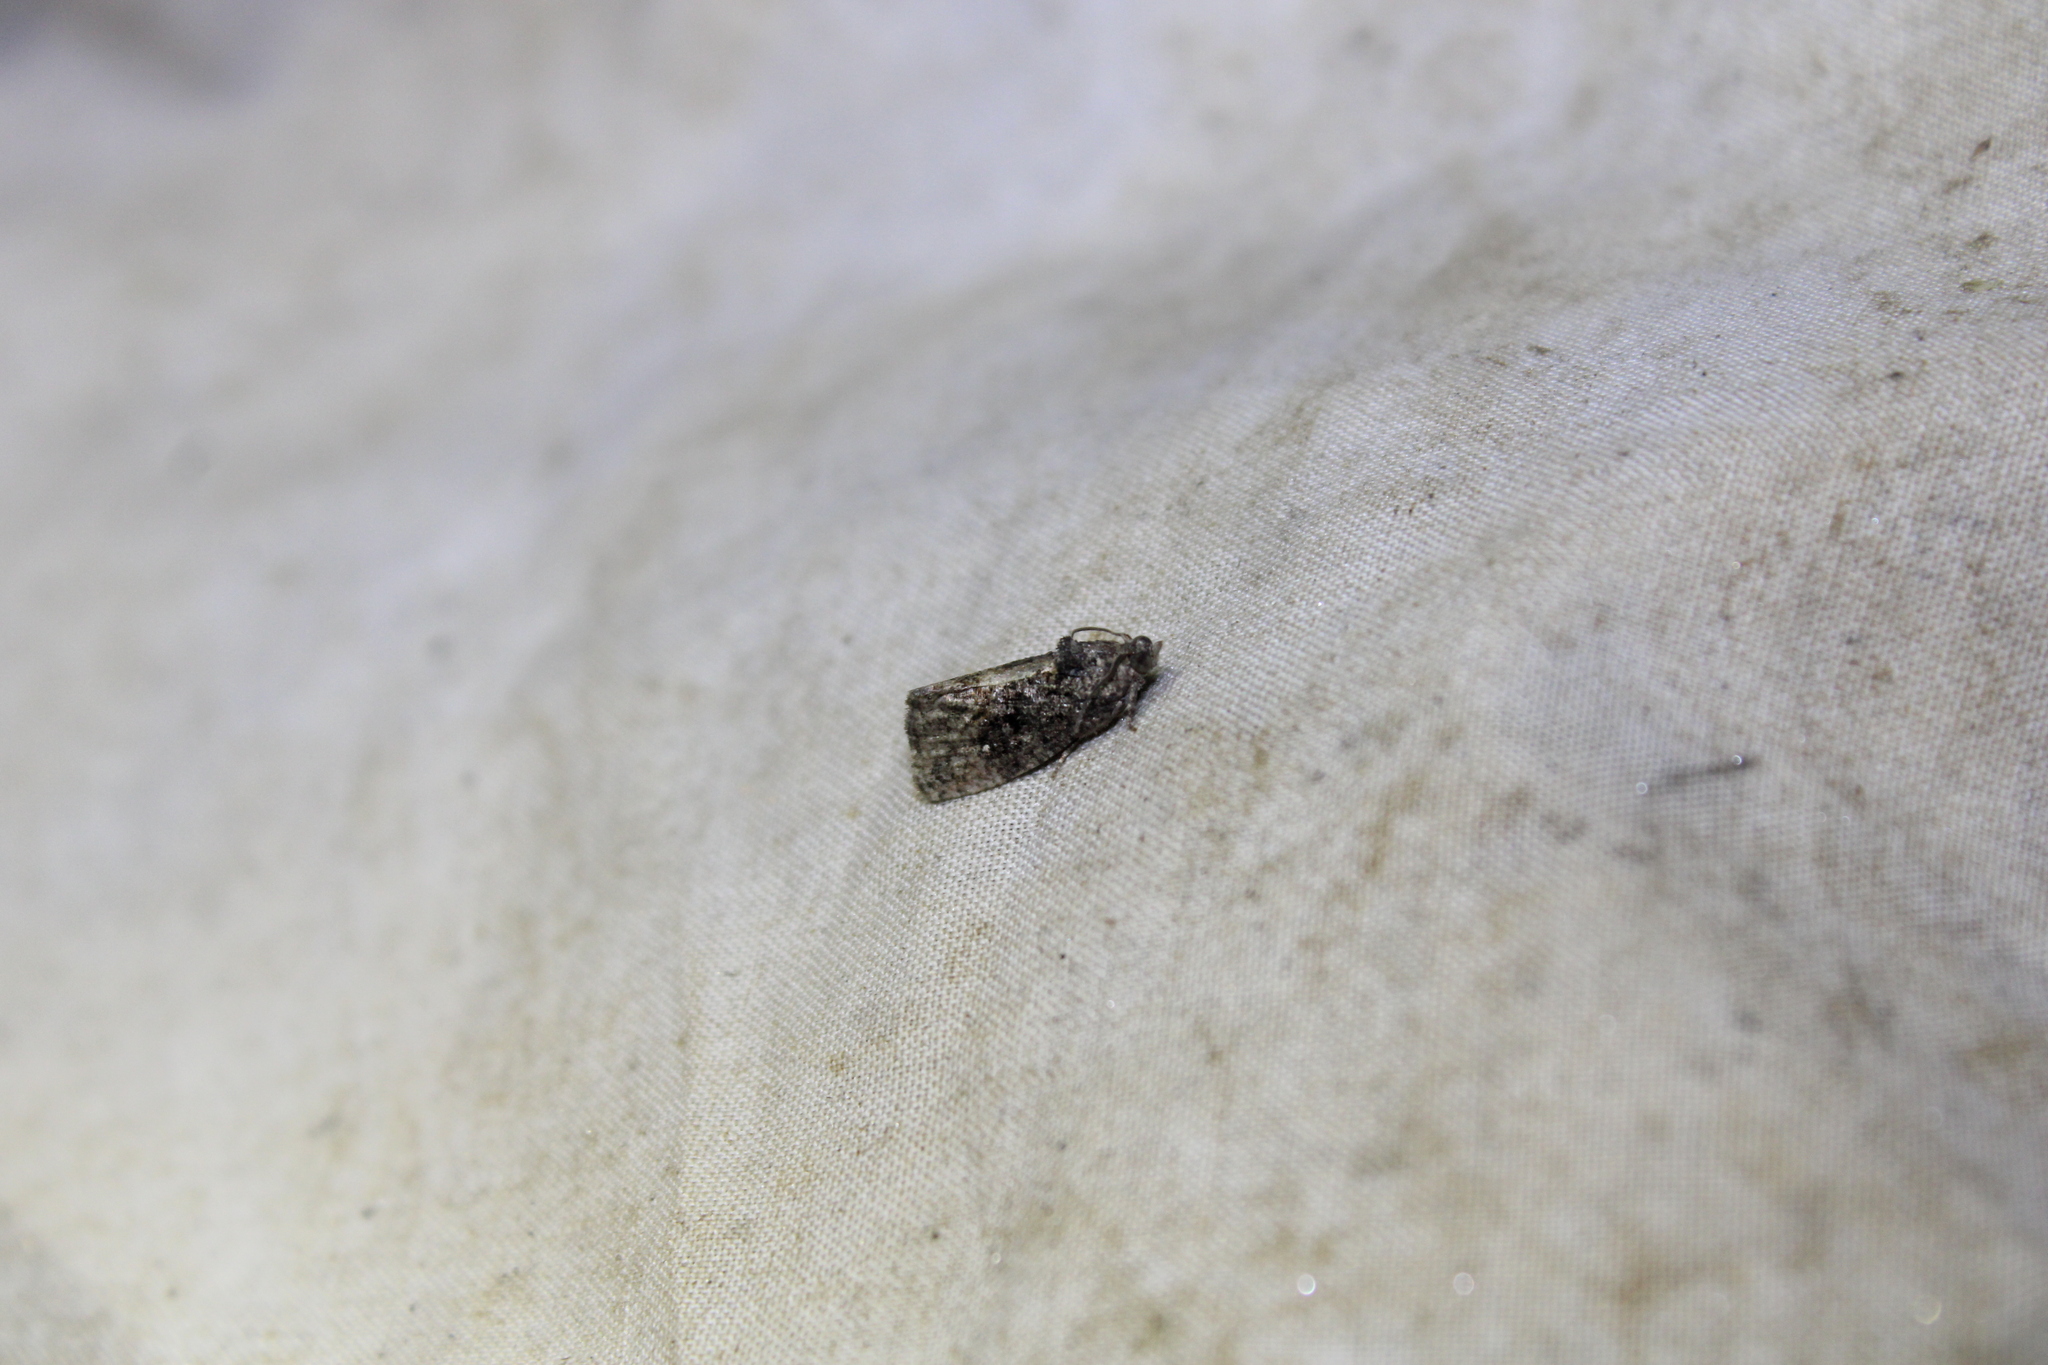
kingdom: Animalia
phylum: Arthropoda
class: Insecta
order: Lepidoptera
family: Tortricidae
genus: Gymnandrosoma
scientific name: Gymnandrosoma punctidiscanum
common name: Dotted ecdytolopha moth
